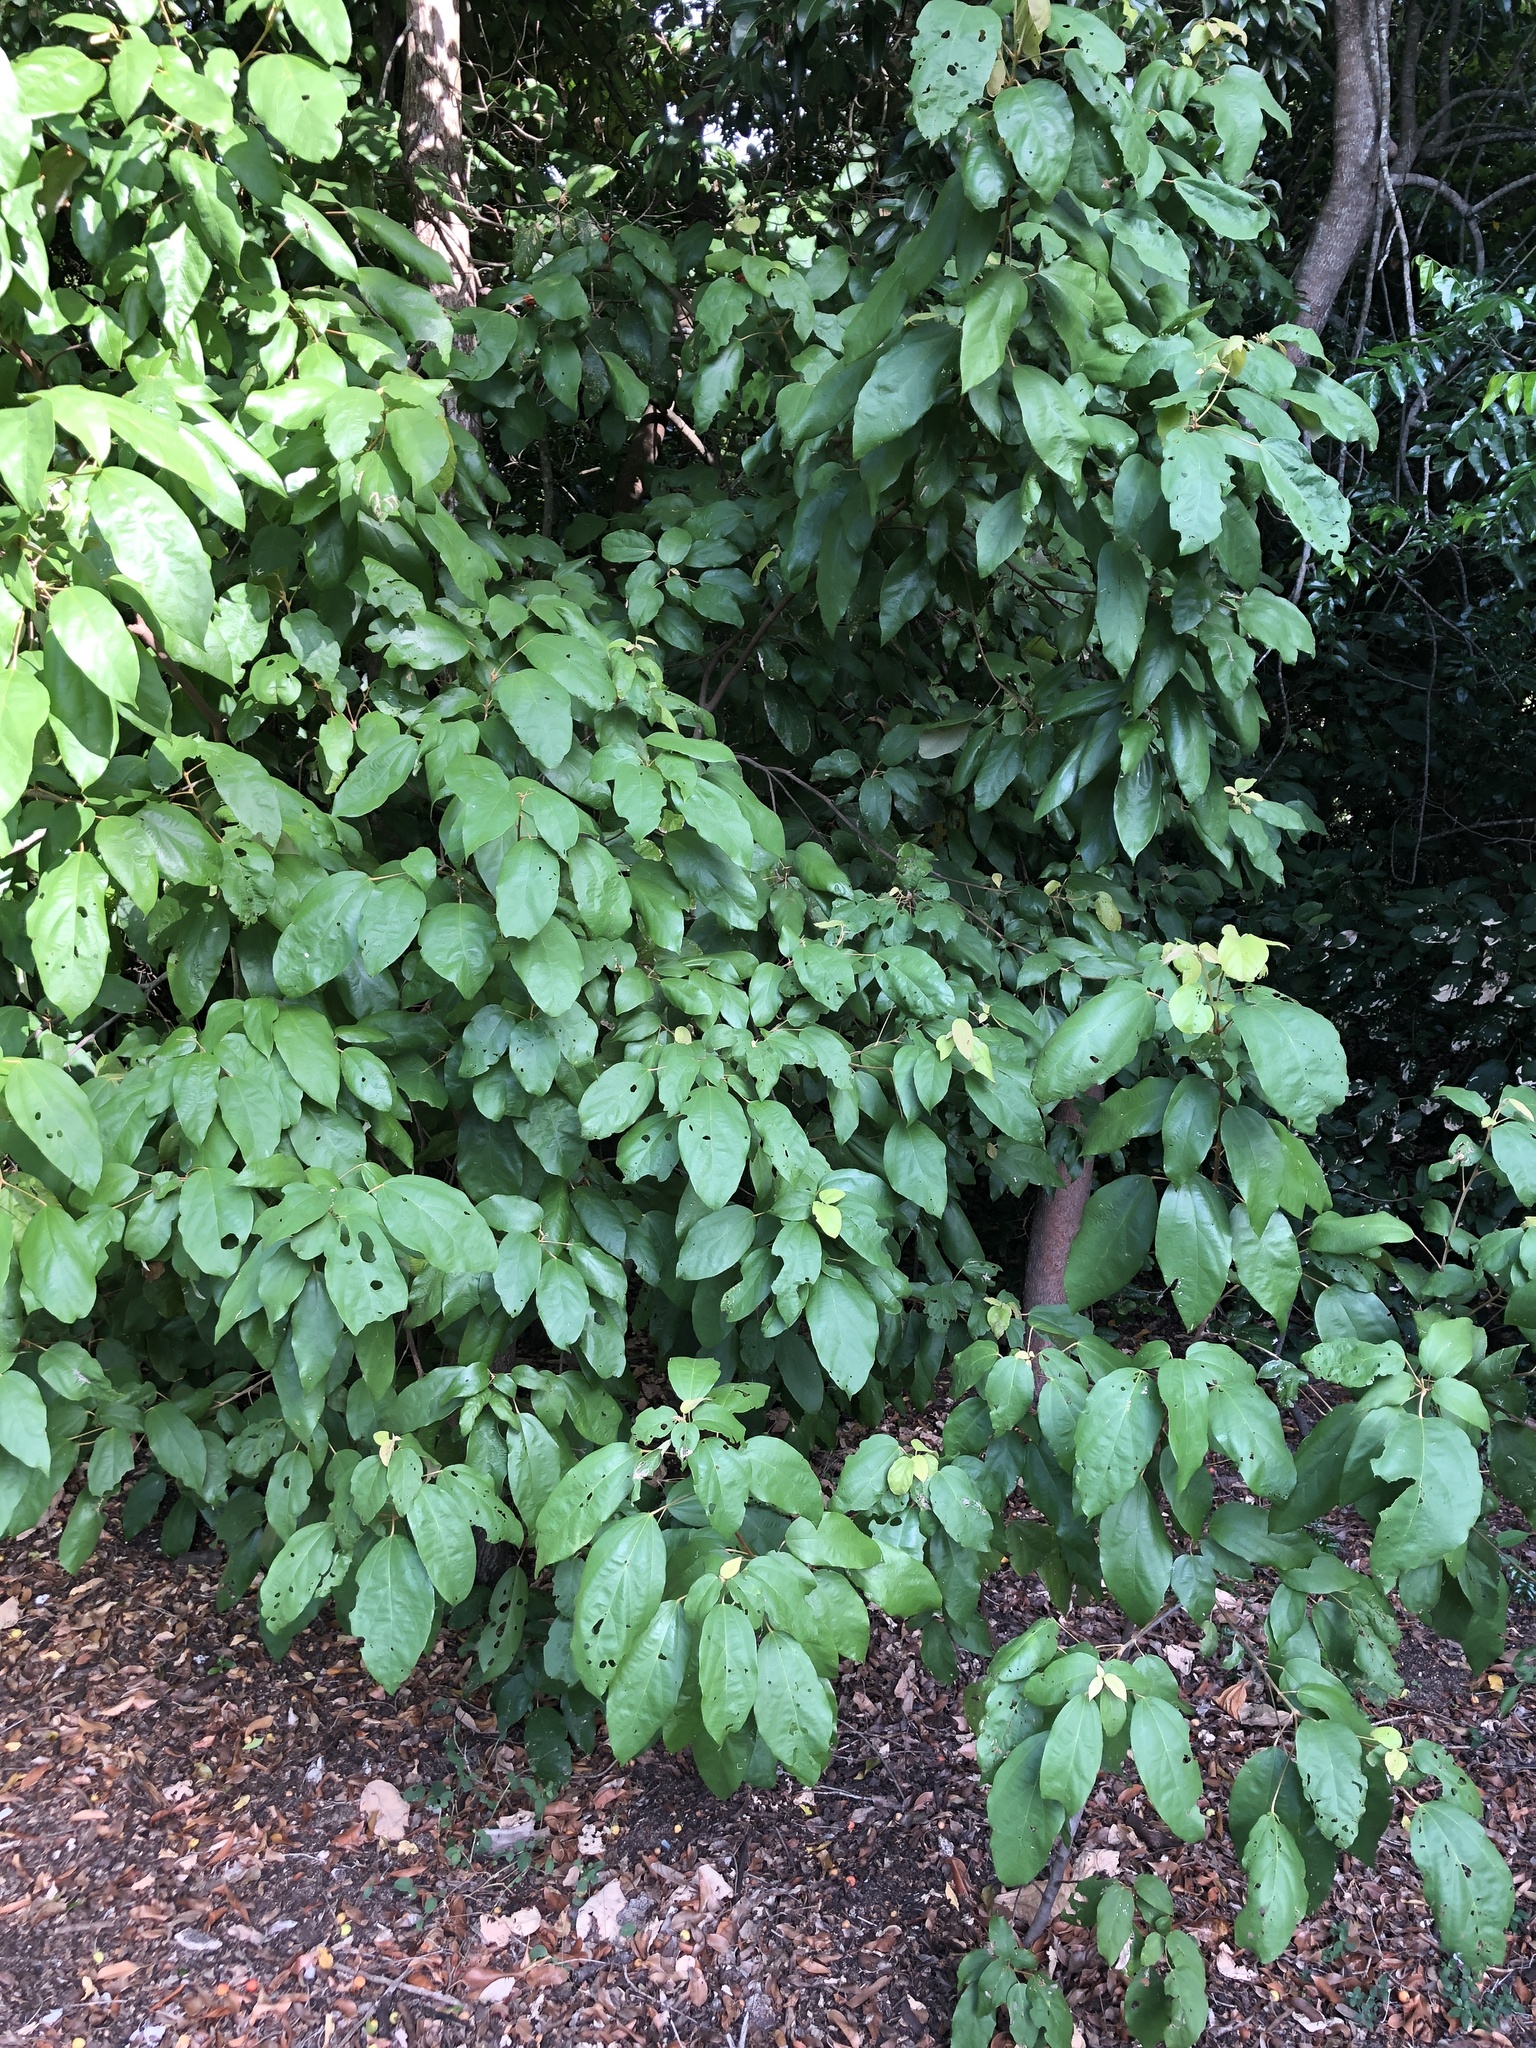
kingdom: Plantae
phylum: Tracheophyta
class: Magnoliopsida
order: Malpighiales
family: Euphorbiaceae
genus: Mallotus
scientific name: Mallotus philippensis
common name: Kamala tree
